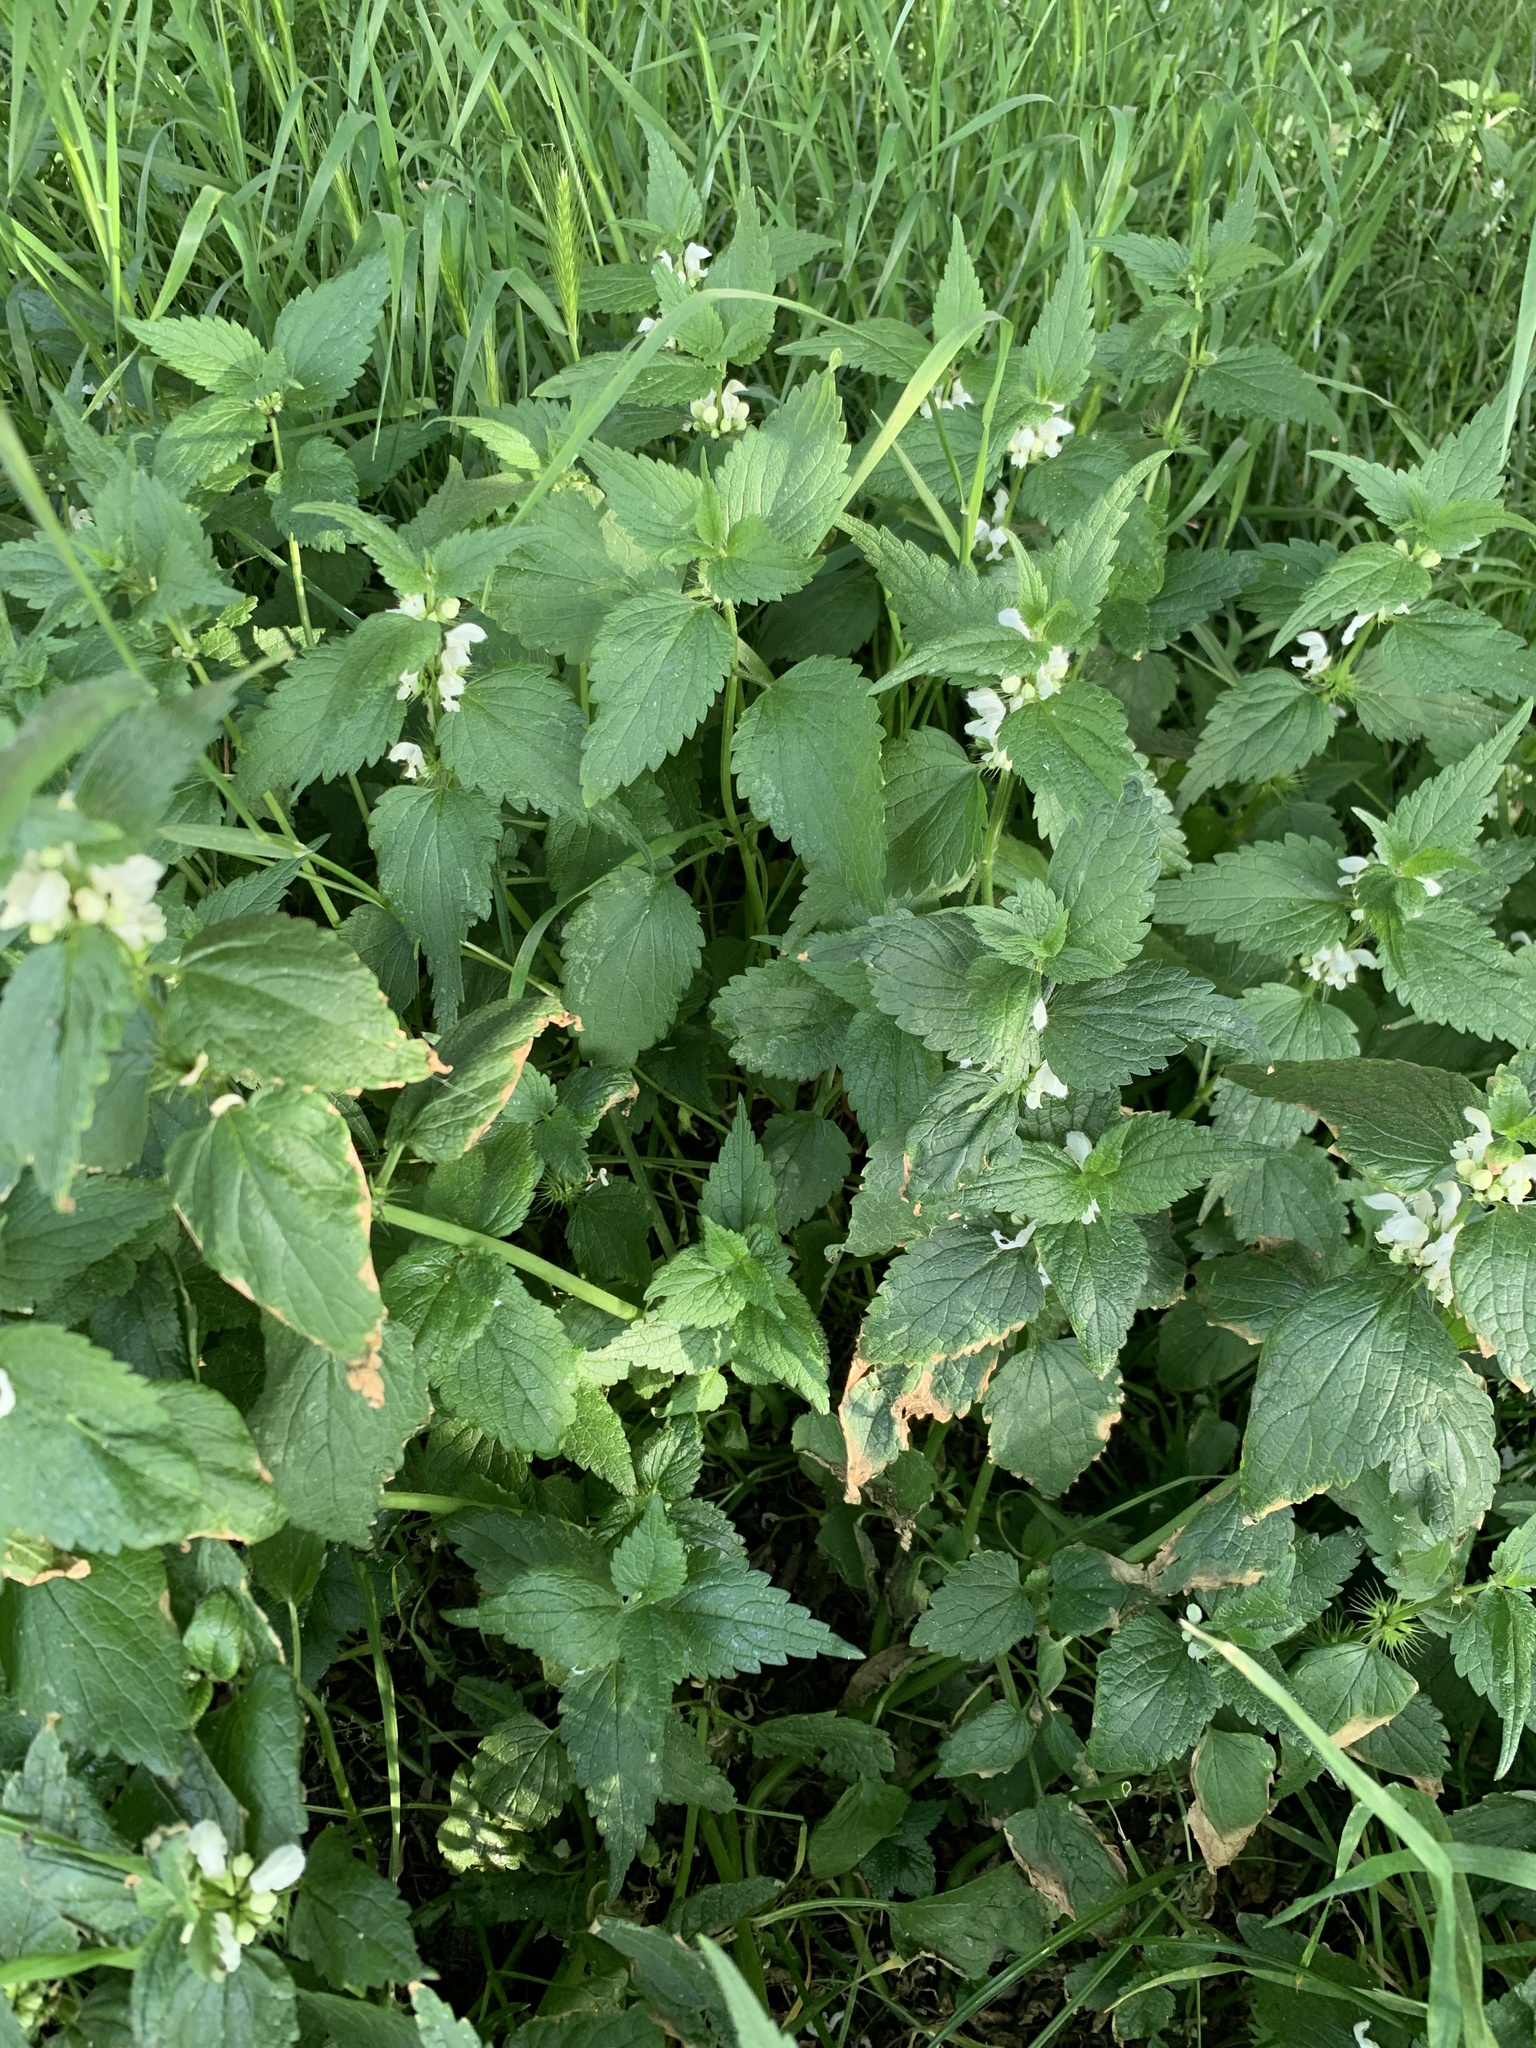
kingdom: Plantae
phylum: Tracheophyta
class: Magnoliopsida
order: Lamiales
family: Lamiaceae
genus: Lamium
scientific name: Lamium album
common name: White dead-nettle
